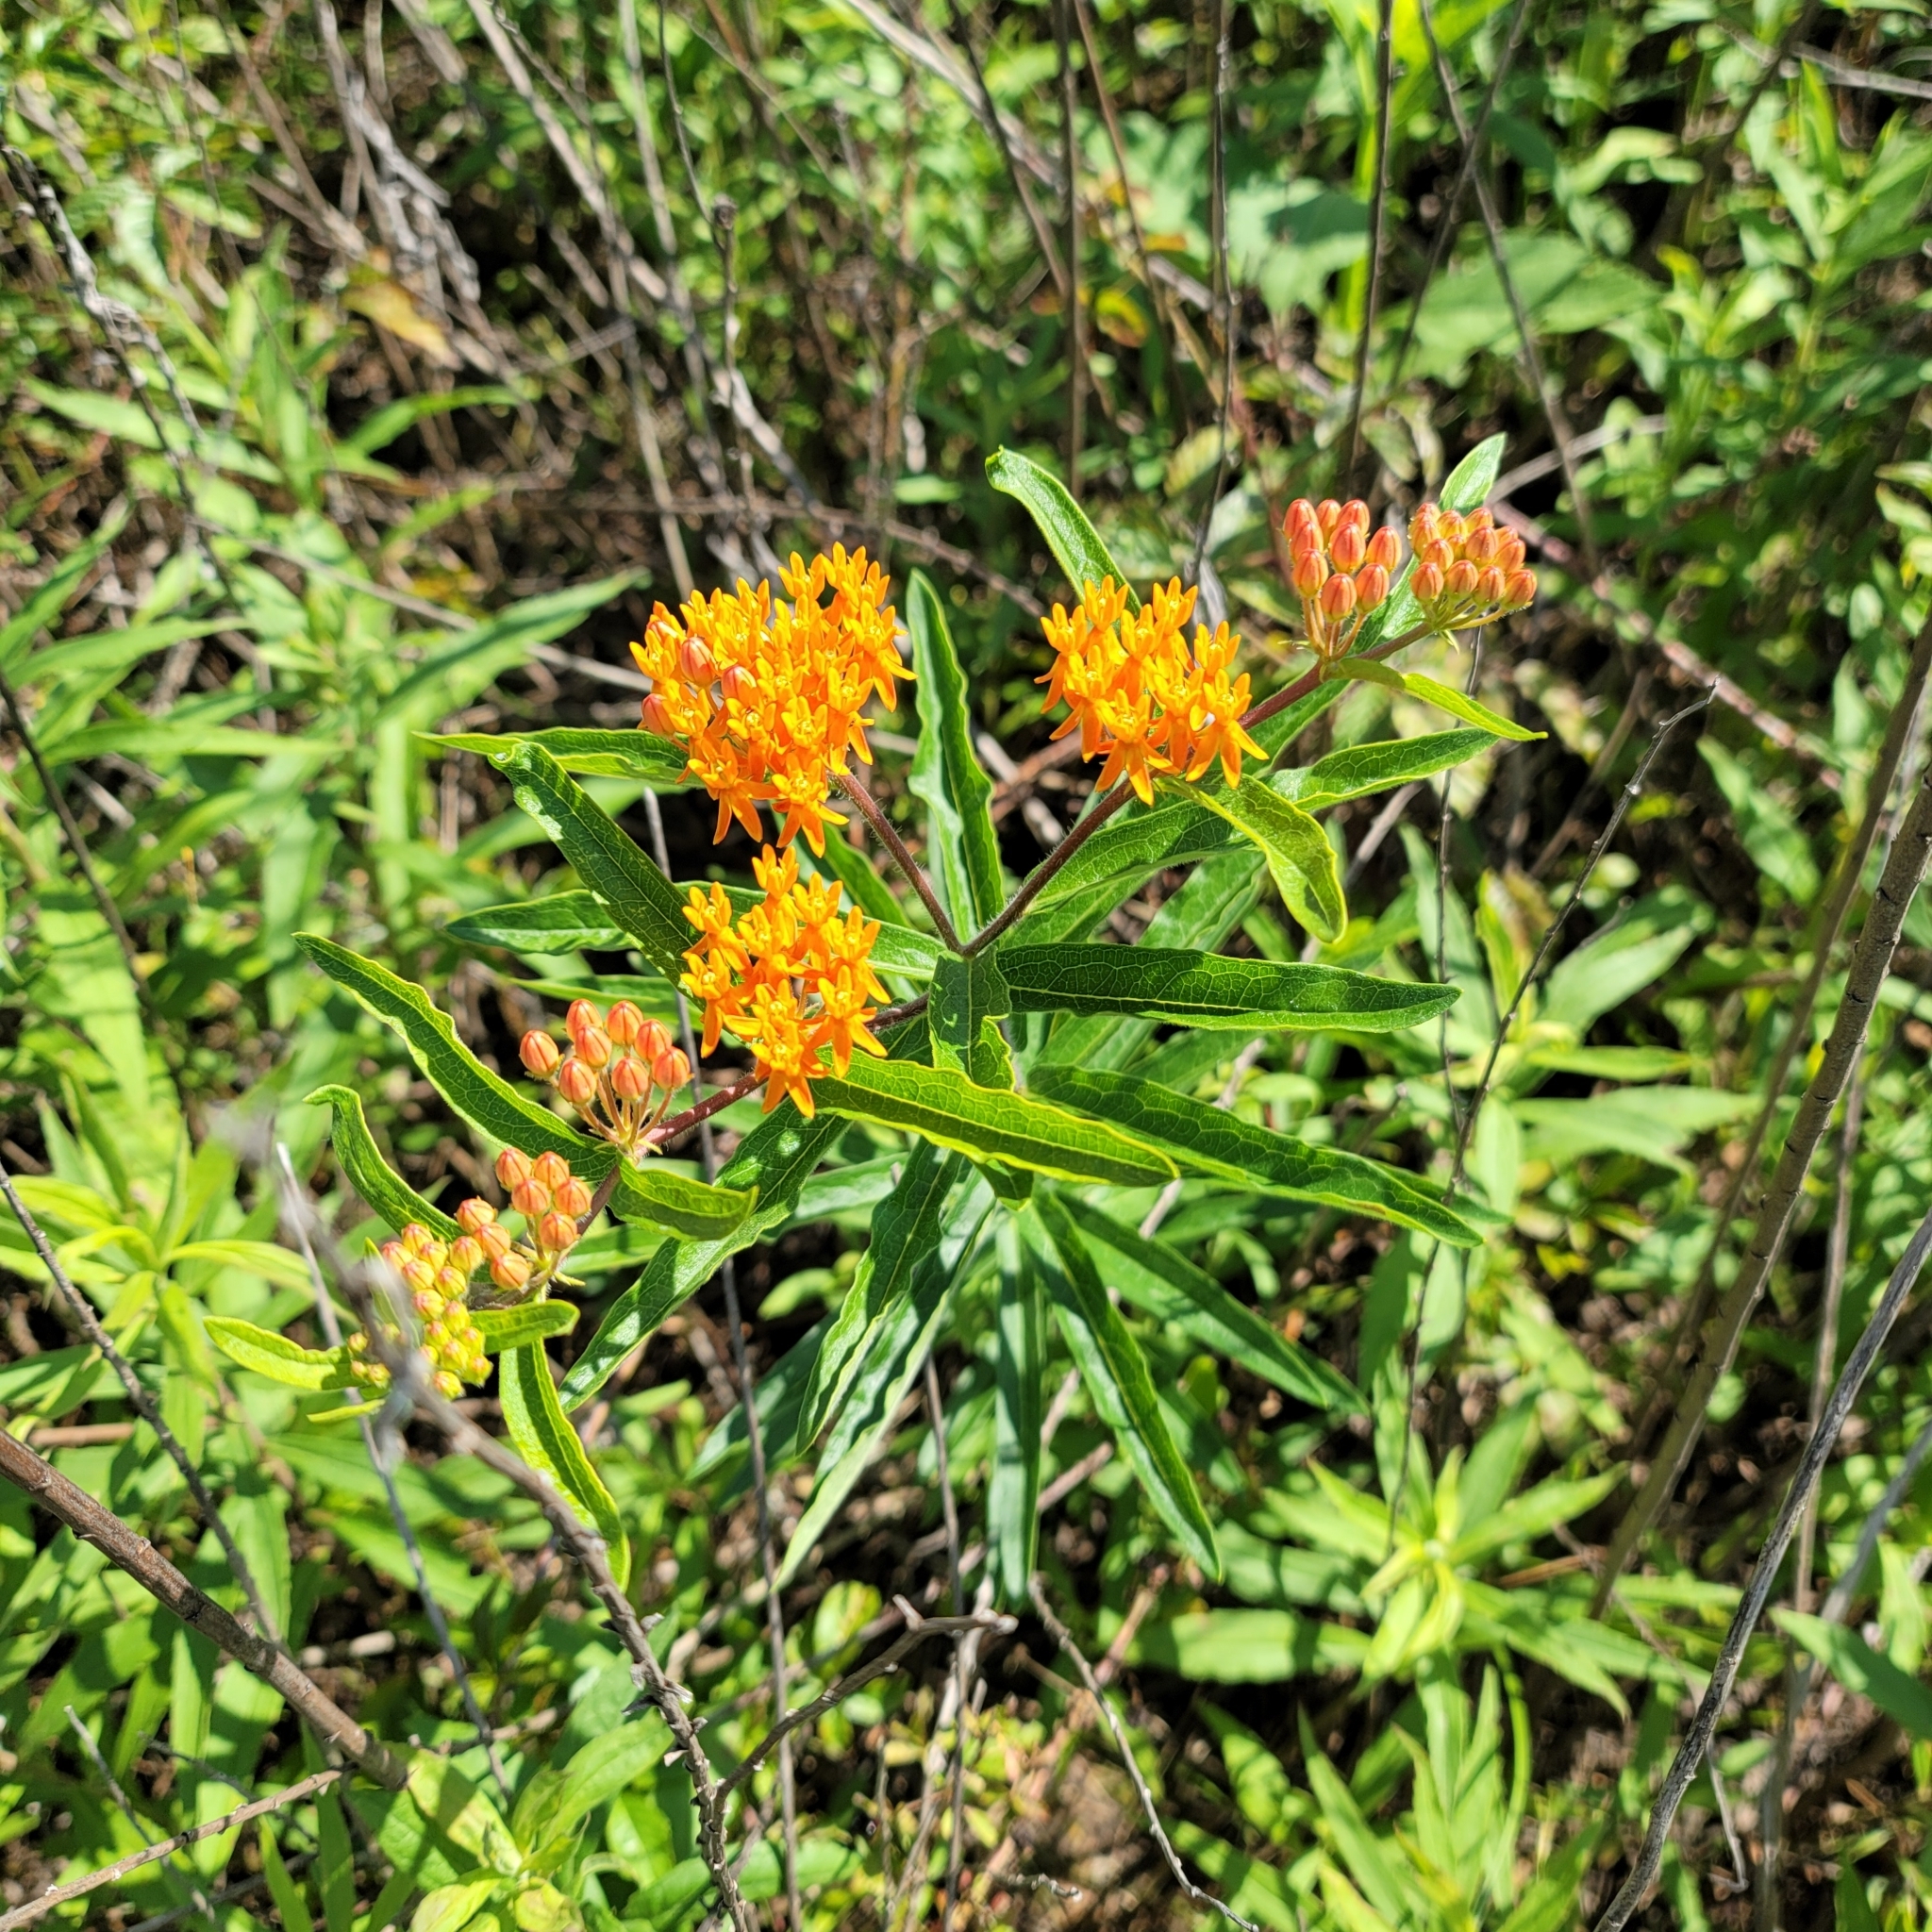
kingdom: Plantae
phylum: Tracheophyta
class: Magnoliopsida
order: Gentianales
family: Apocynaceae
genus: Asclepias
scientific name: Asclepias tuberosa
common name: Butterfly milkweed
